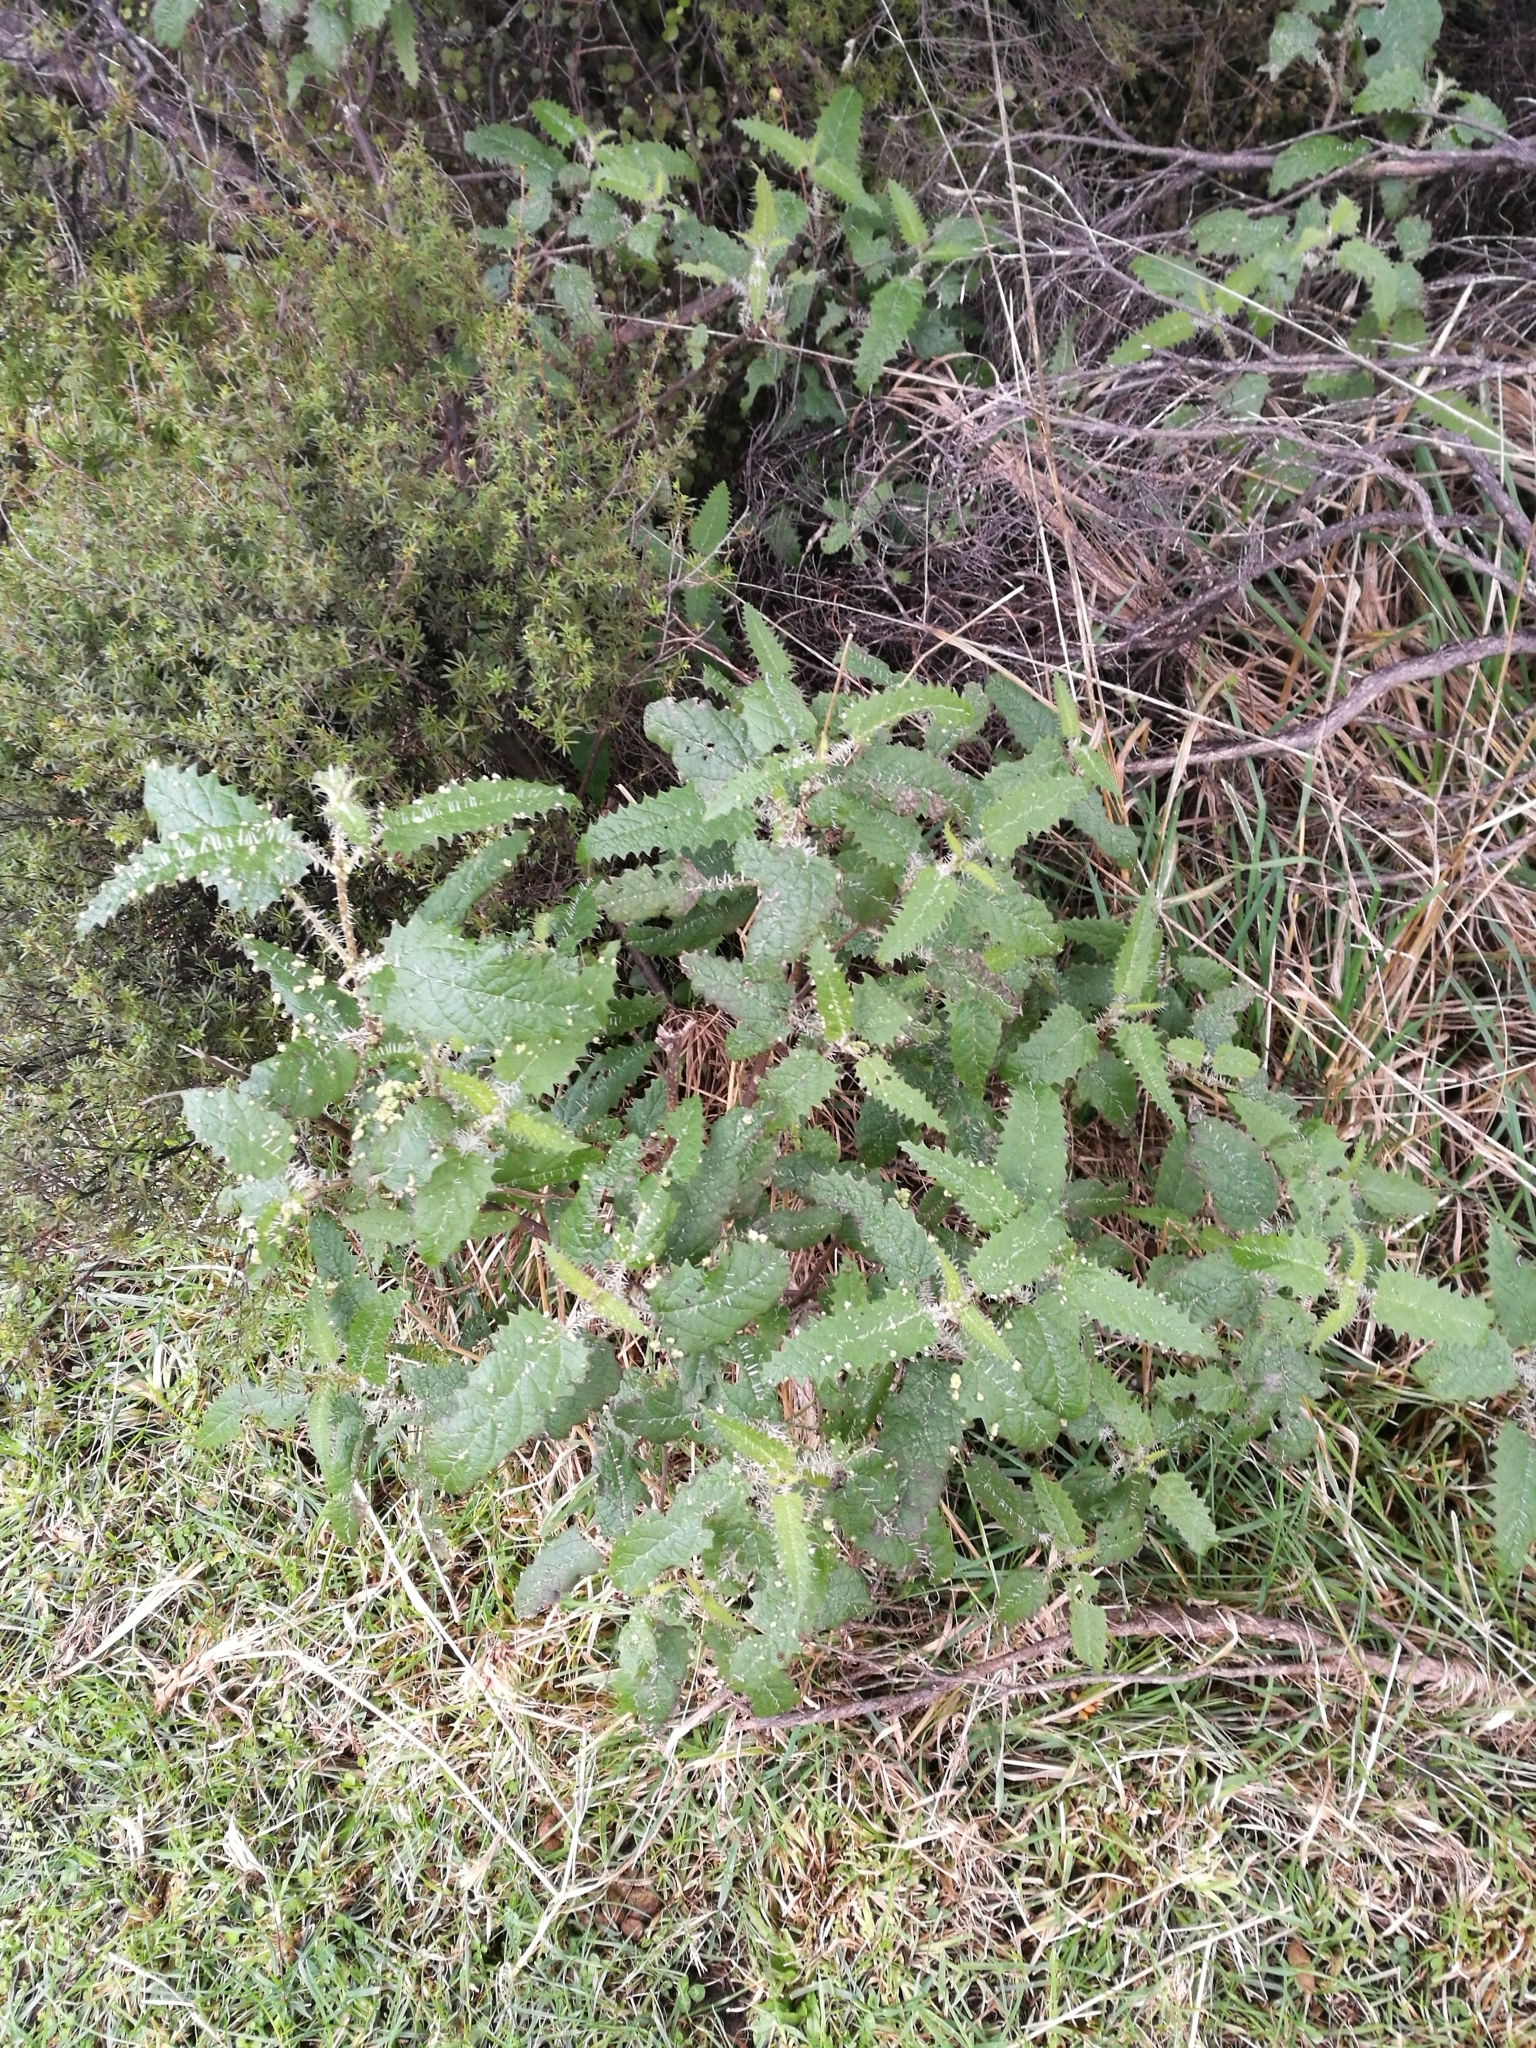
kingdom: Plantae
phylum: Tracheophyta
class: Magnoliopsida
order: Rosales
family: Urticaceae
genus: Urtica
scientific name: Urtica ferox
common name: Tree nettle
